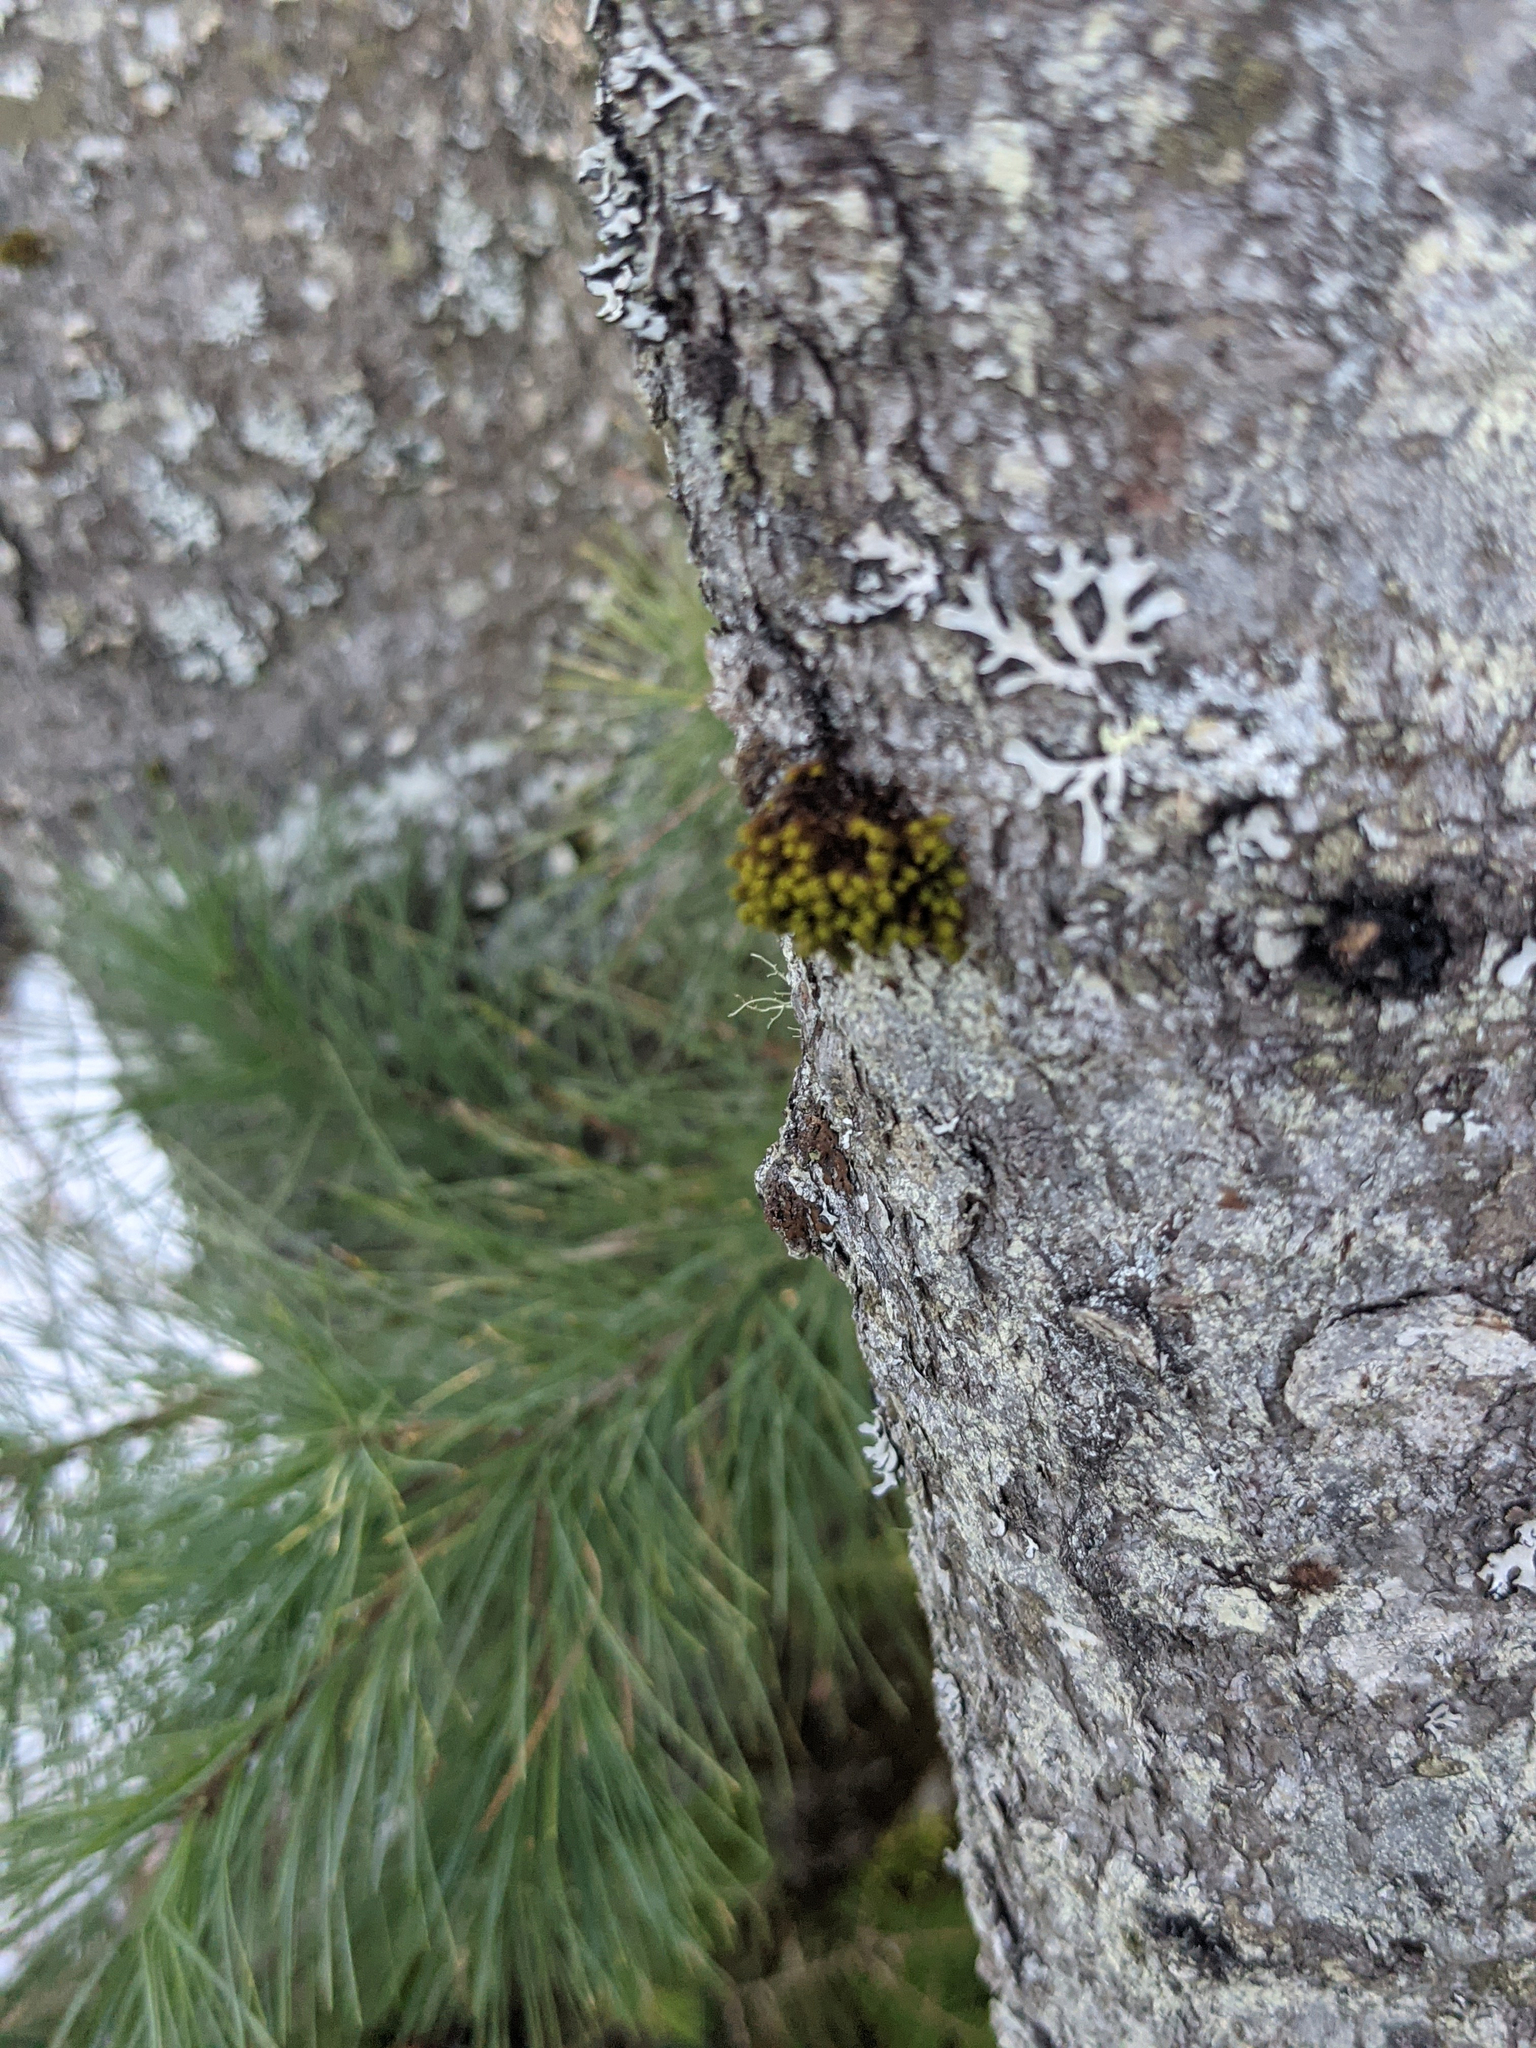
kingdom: Plantae
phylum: Bryophyta
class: Bryopsida
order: Orthotrichales
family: Orthotrichaceae
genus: Ulota
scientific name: Ulota crispa
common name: Crisped pincushion moss
